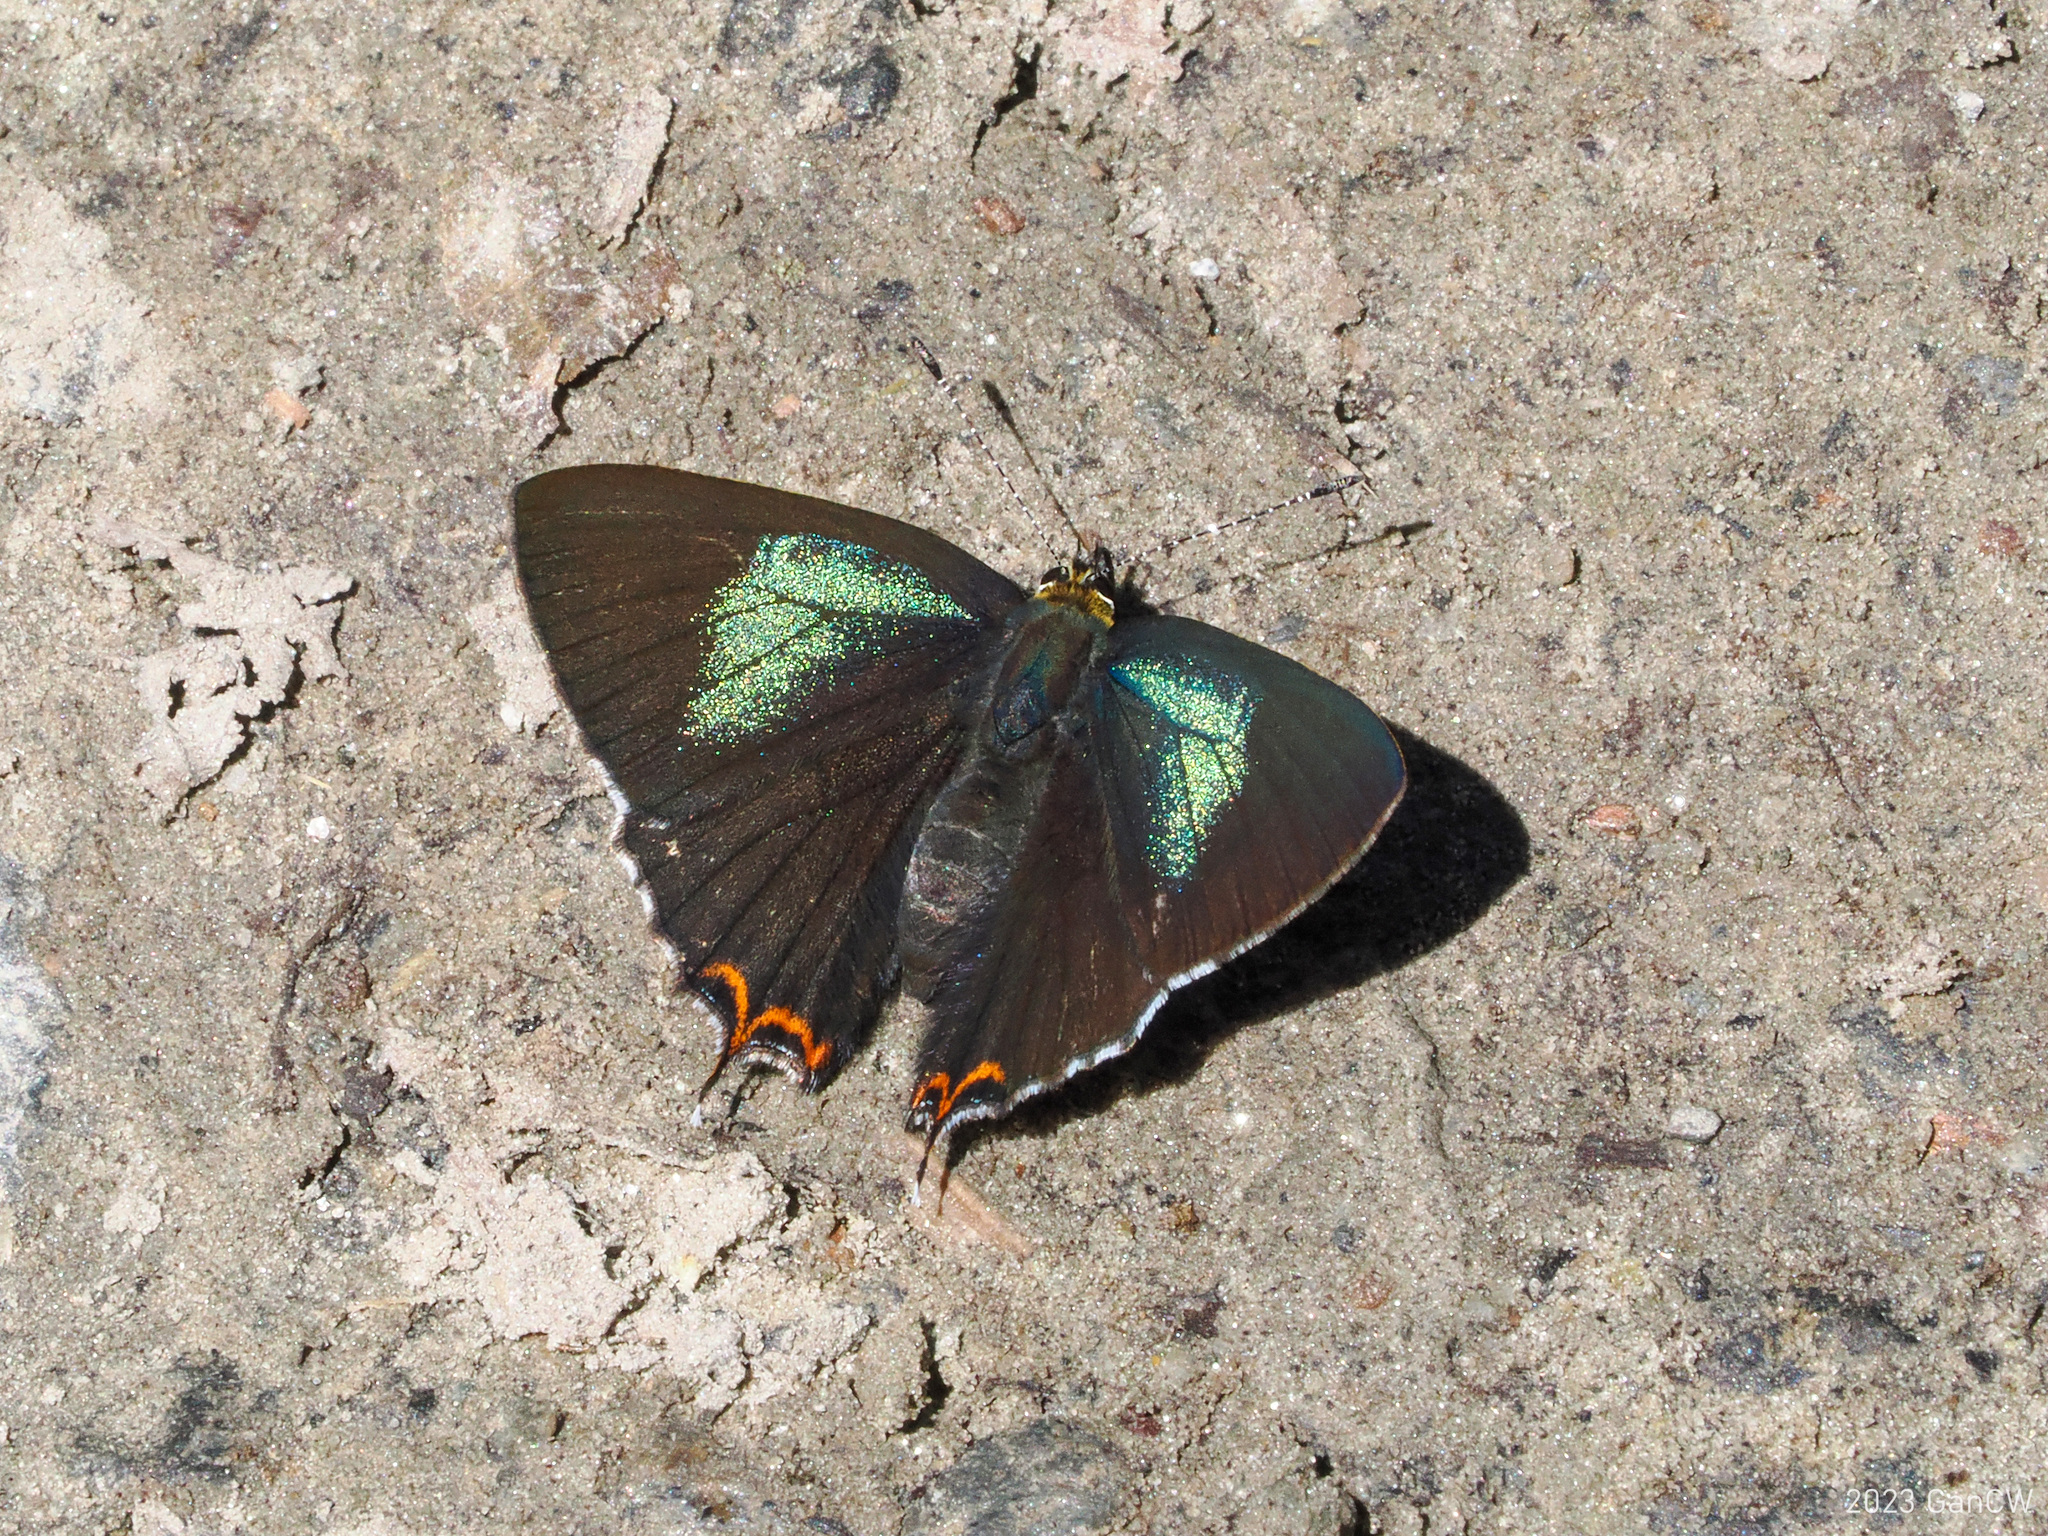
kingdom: Animalia
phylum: Arthropoda
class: Insecta
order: Lepidoptera
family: Lycaenidae
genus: Heliophorus
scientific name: Heliophorus tamu
